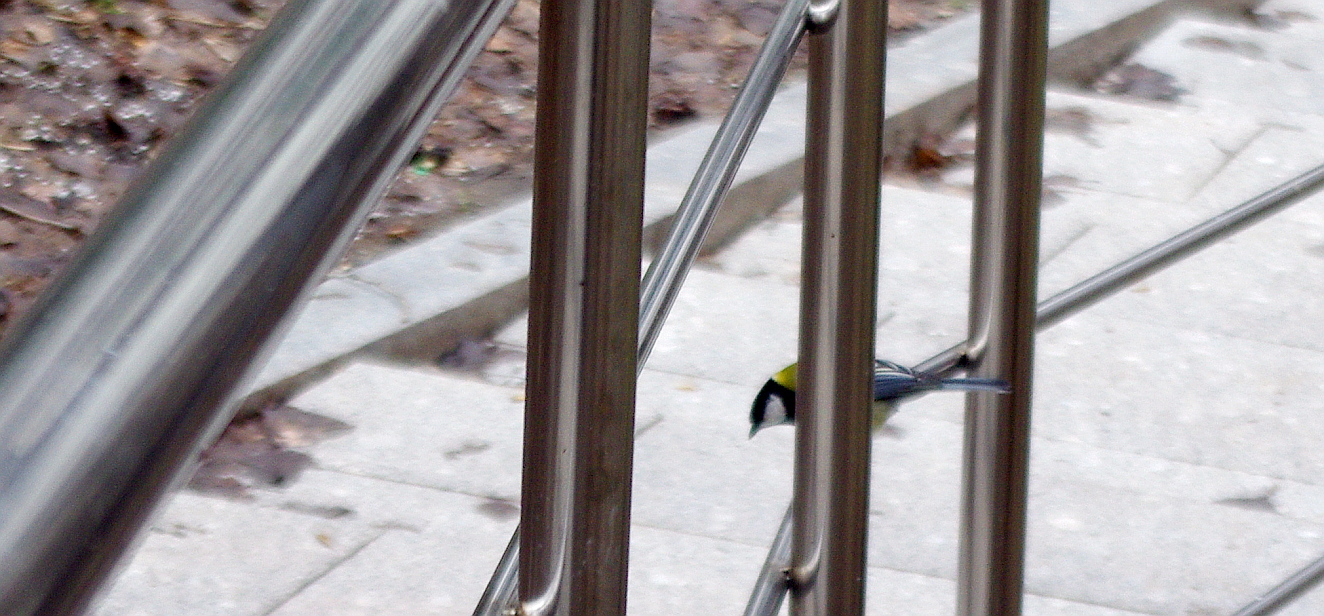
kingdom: Animalia
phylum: Chordata
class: Aves
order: Passeriformes
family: Paridae
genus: Parus
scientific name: Parus major
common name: Great tit
